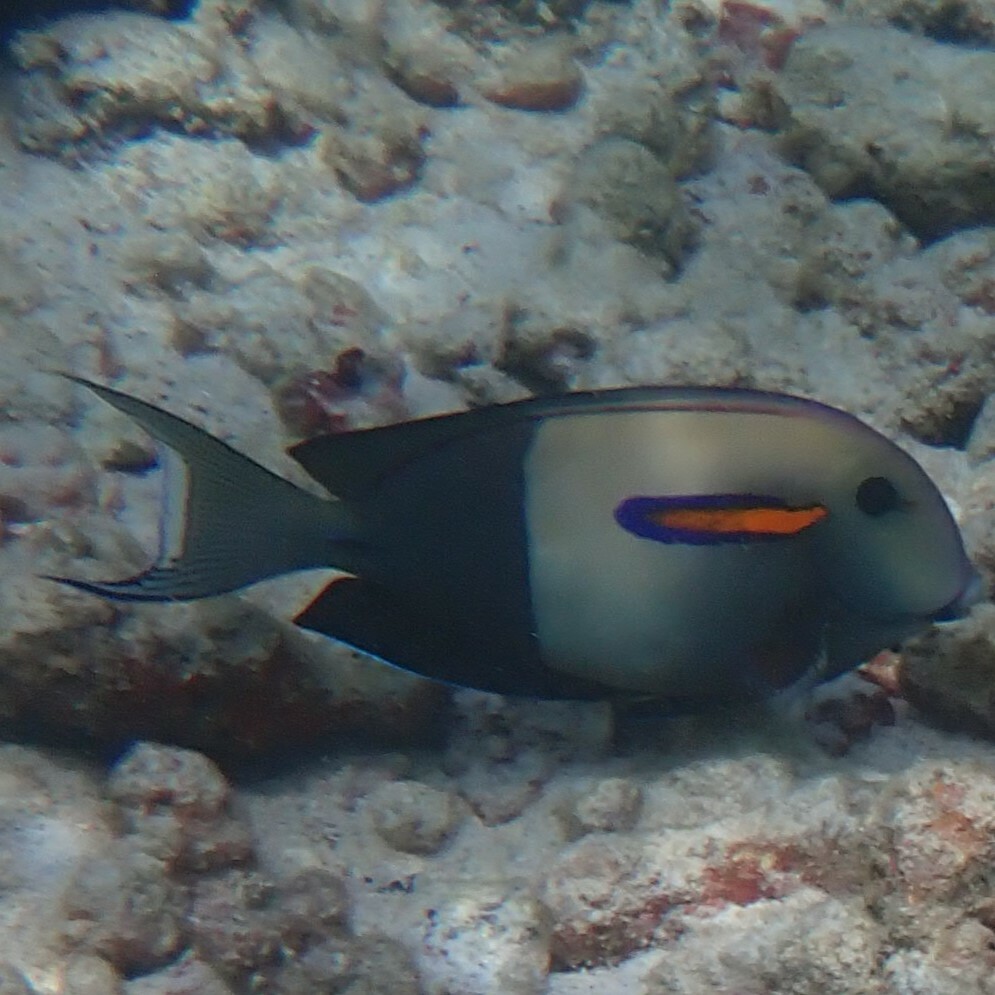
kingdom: Animalia
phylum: Chordata
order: Perciformes
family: Acanthuridae
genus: Acanthurus
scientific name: Acanthurus olivaceus
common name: Gendarme fish
